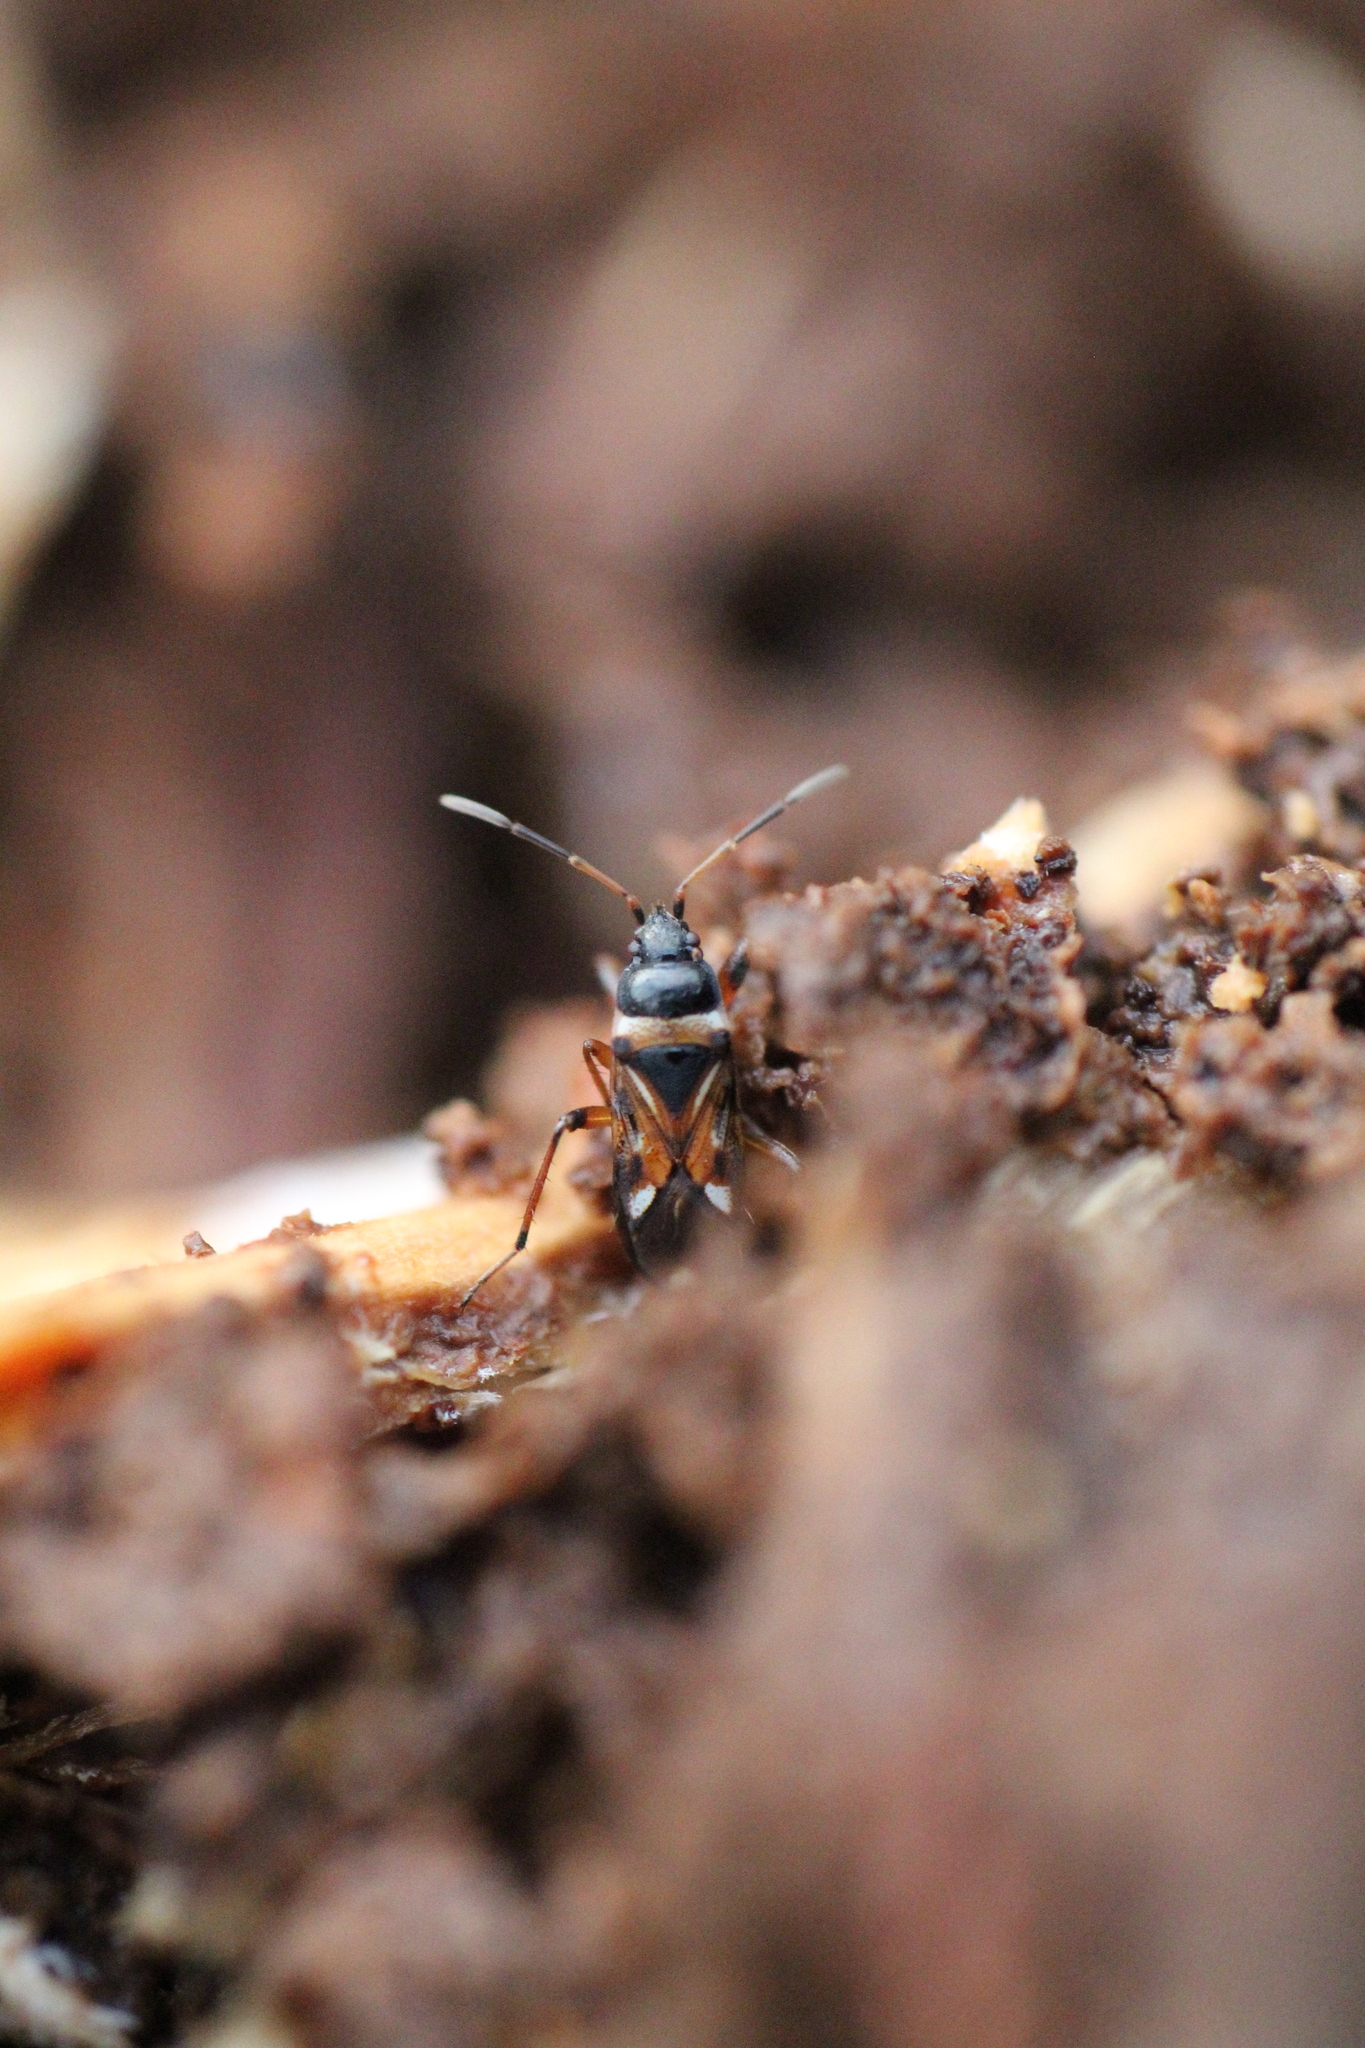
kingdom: Animalia
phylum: Arthropoda
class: Insecta
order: Hemiptera
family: Rhyparochromidae
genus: Raglius
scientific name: Raglius alboacuminatus
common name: Dirt-colored seed bug
